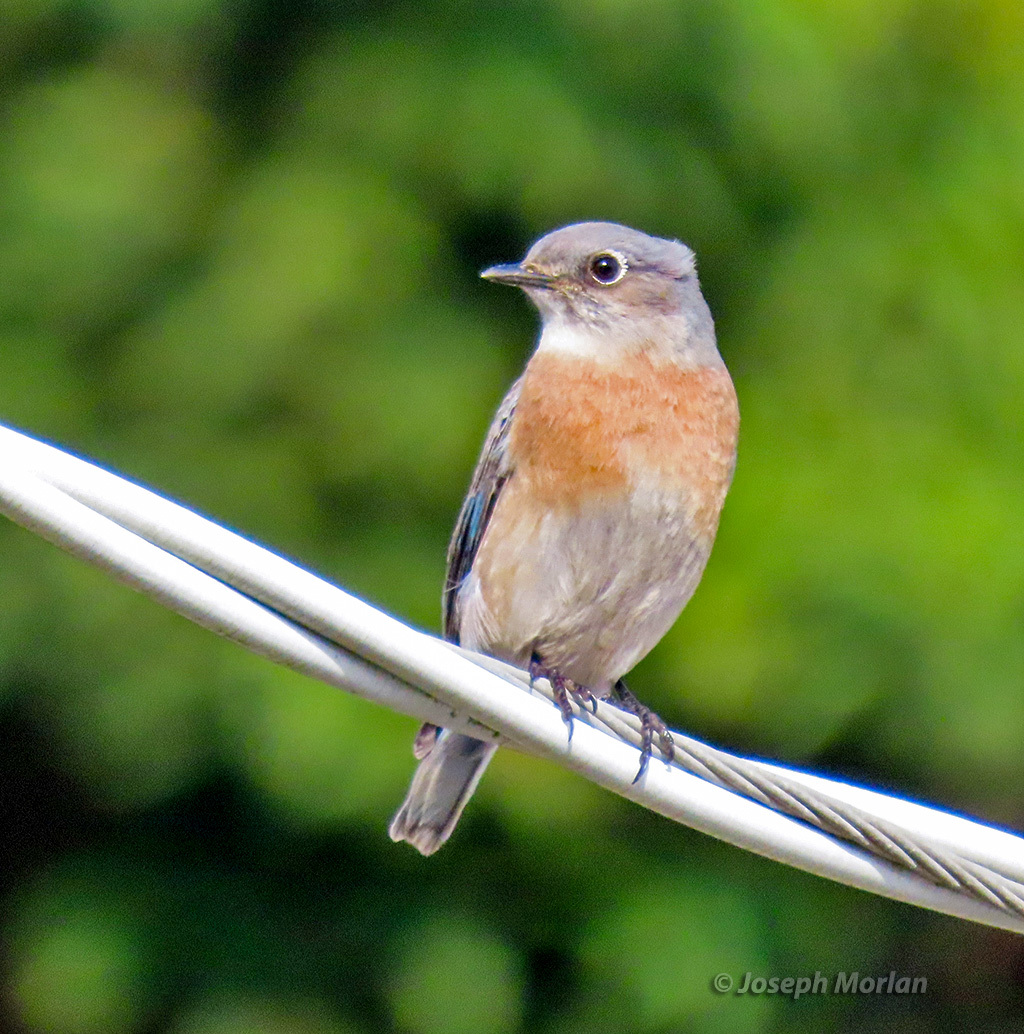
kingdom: Animalia
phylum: Chordata
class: Aves
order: Passeriformes
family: Turdidae
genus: Sialia
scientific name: Sialia mexicana
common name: Western bluebird
